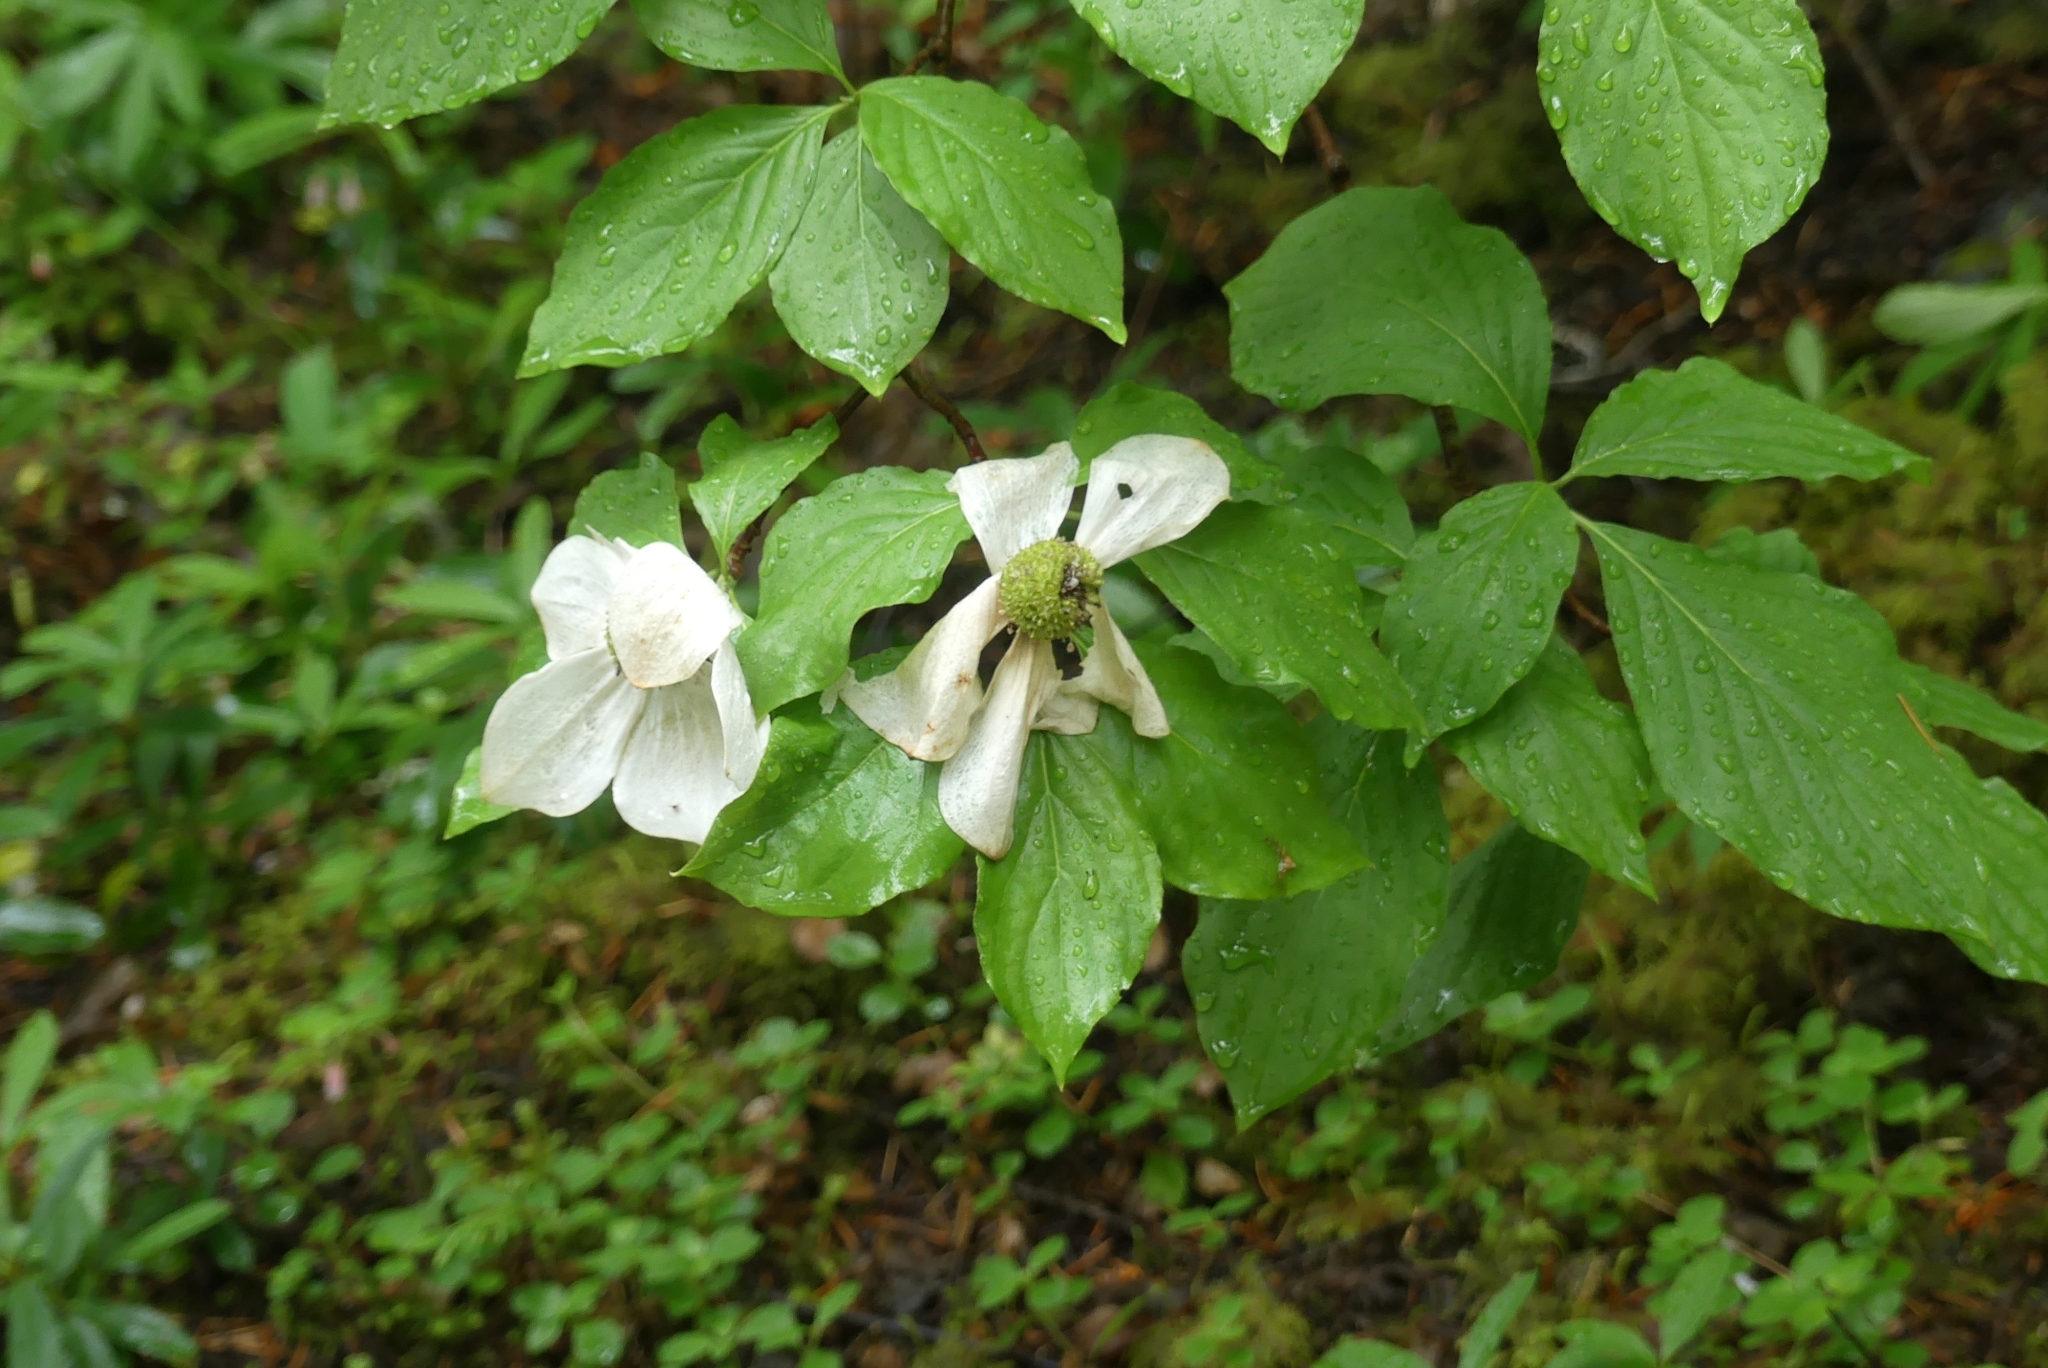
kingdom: Plantae
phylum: Tracheophyta
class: Magnoliopsida
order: Cornales
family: Cornaceae
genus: Cornus
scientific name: Cornus nuttallii
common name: Pacific dogwood
